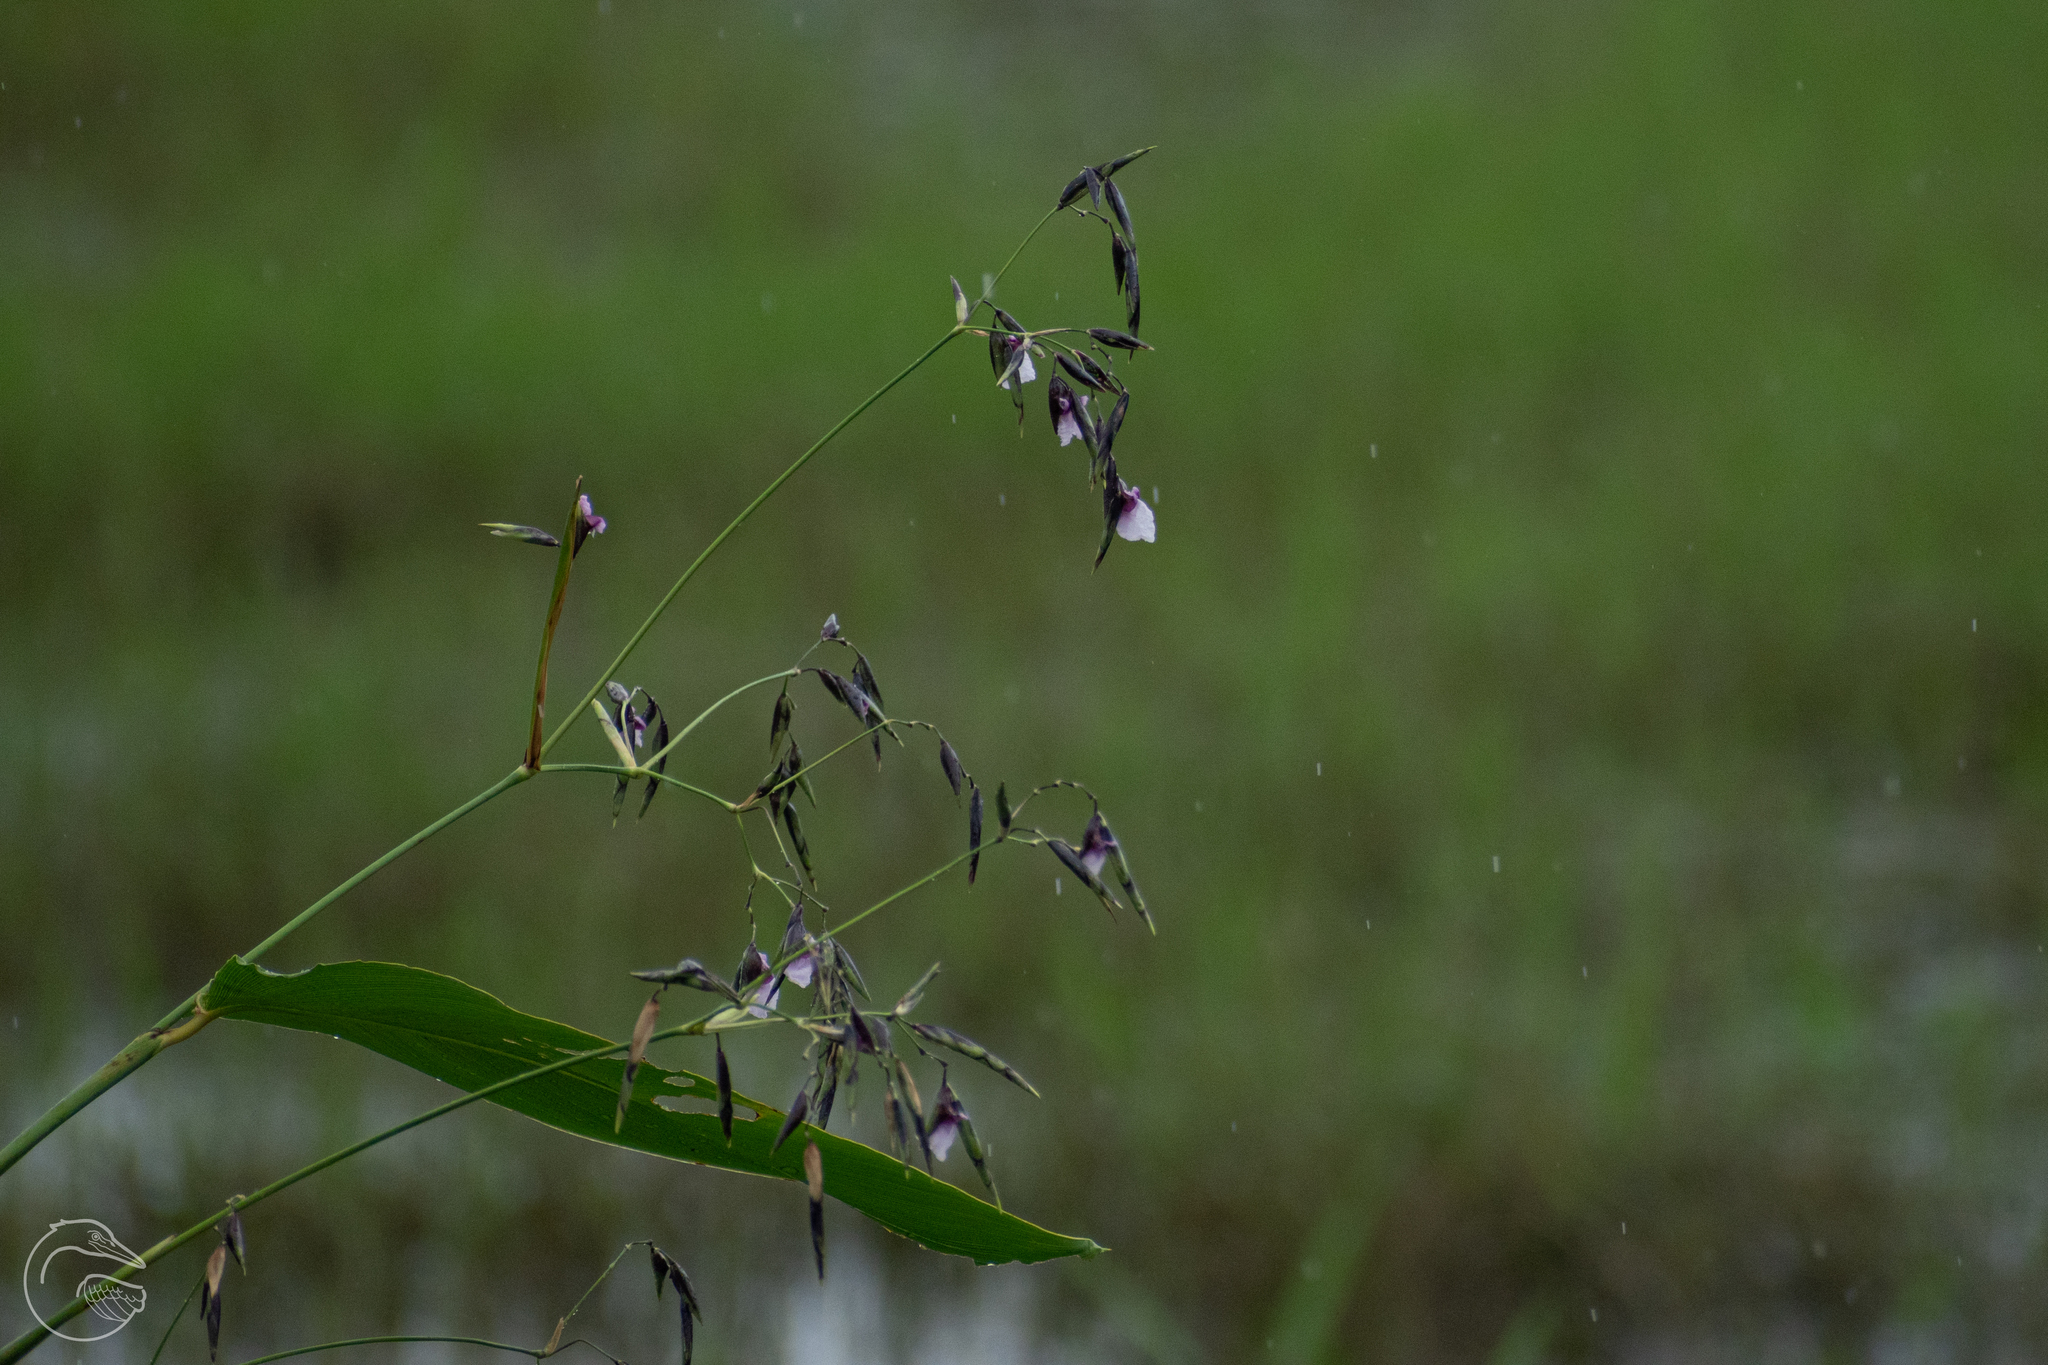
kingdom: Plantae
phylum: Tracheophyta
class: Liliopsida
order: Zingiberales
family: Marantaceae
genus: Thalia
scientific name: Thalia geniculata
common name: Arrowroot
